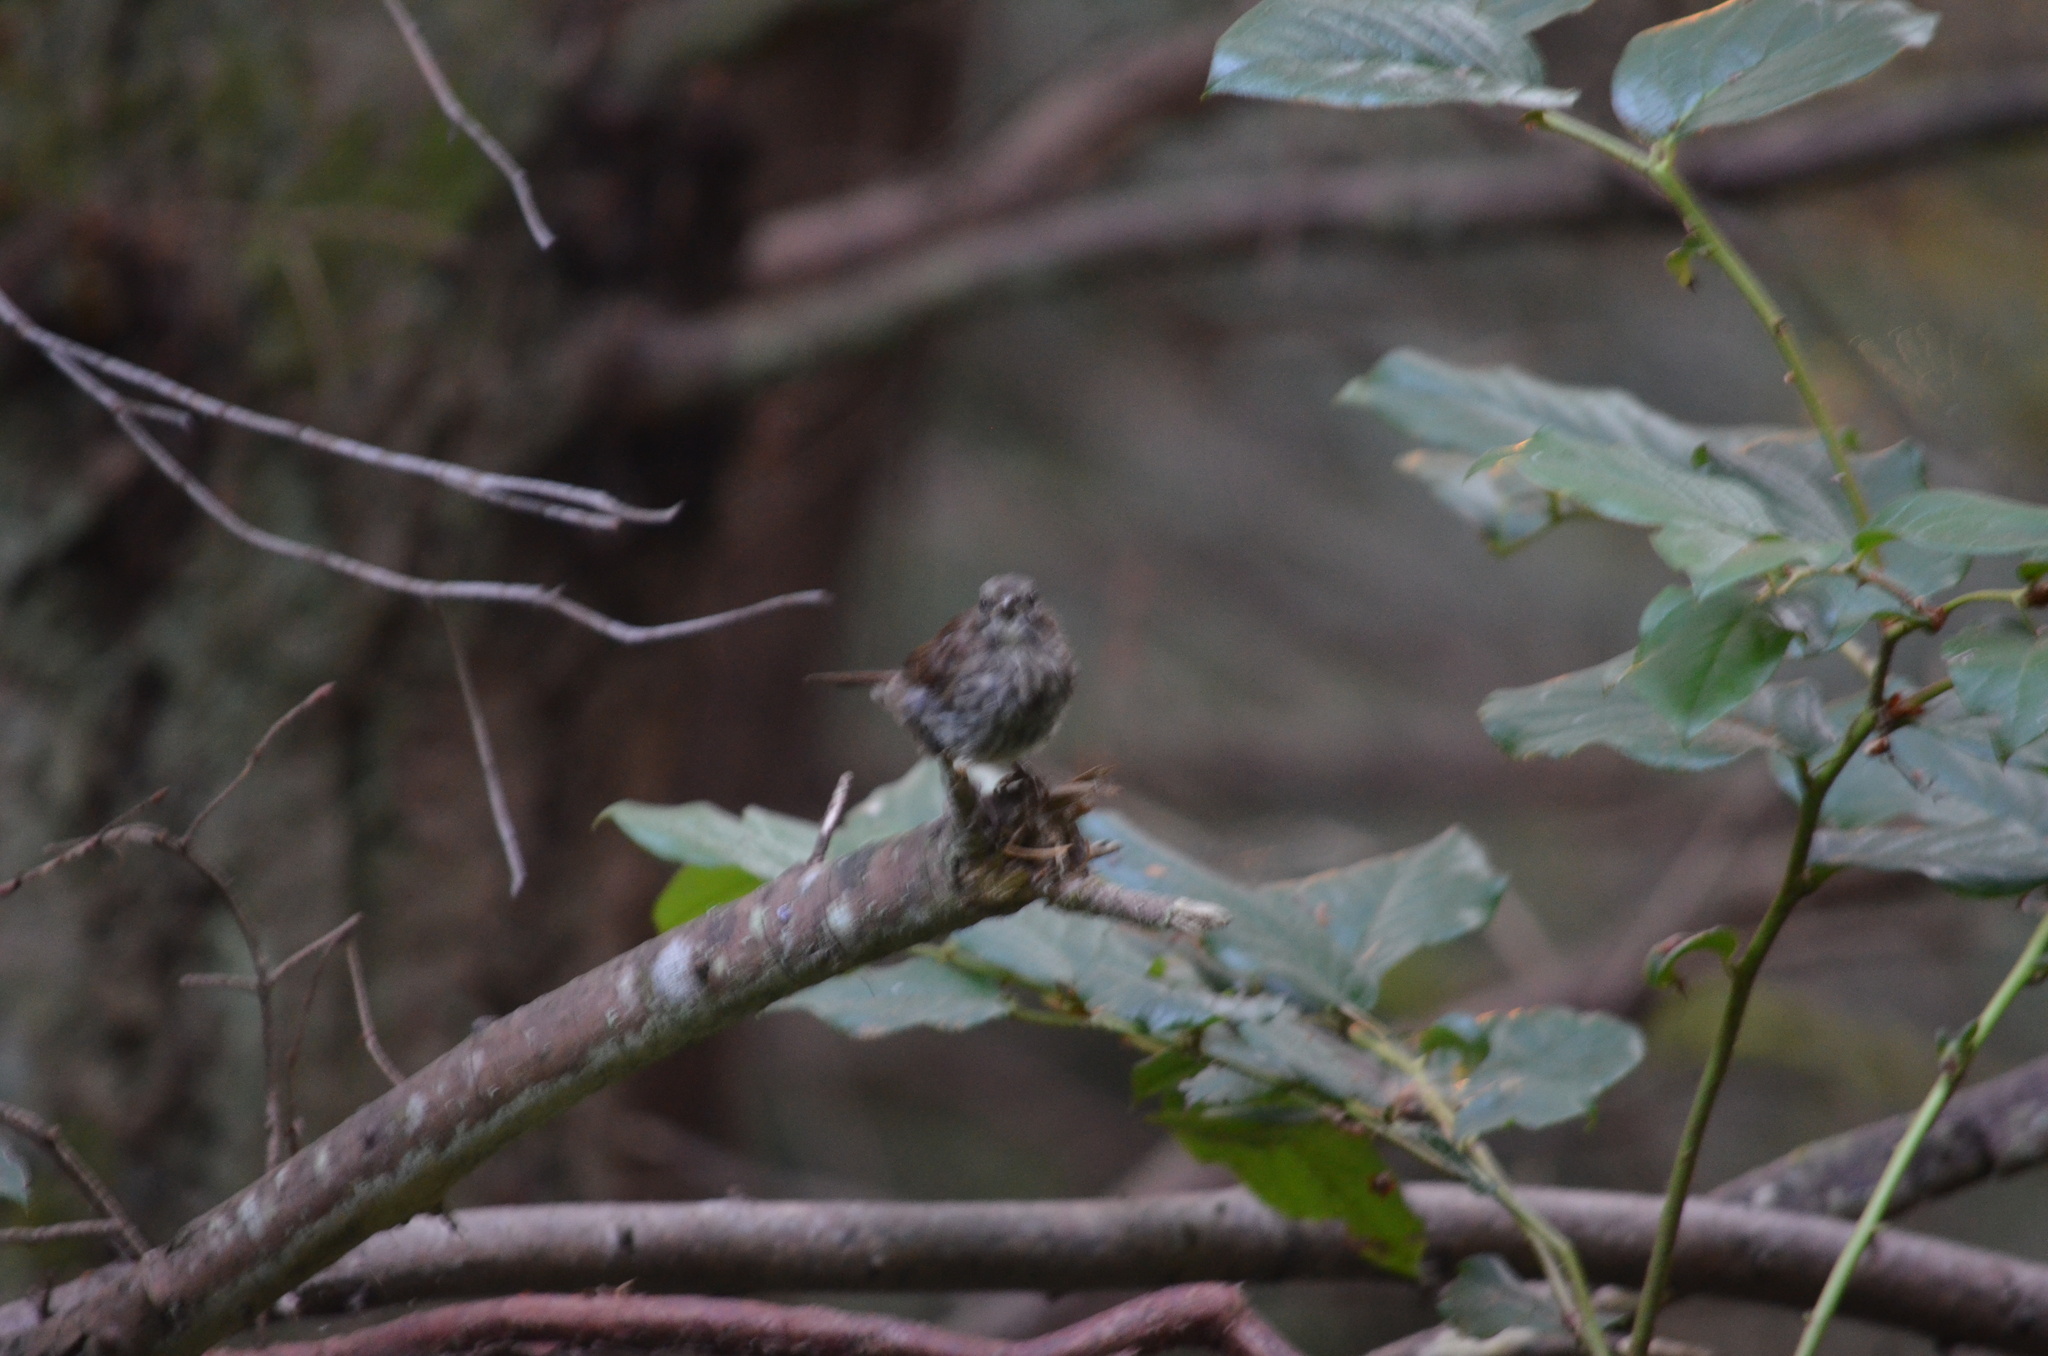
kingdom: Animalia
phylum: Chordata
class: Aves
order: Passeriformes
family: Passerellidae
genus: Melospiza
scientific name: Melospiza melodia
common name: Song sparrow
